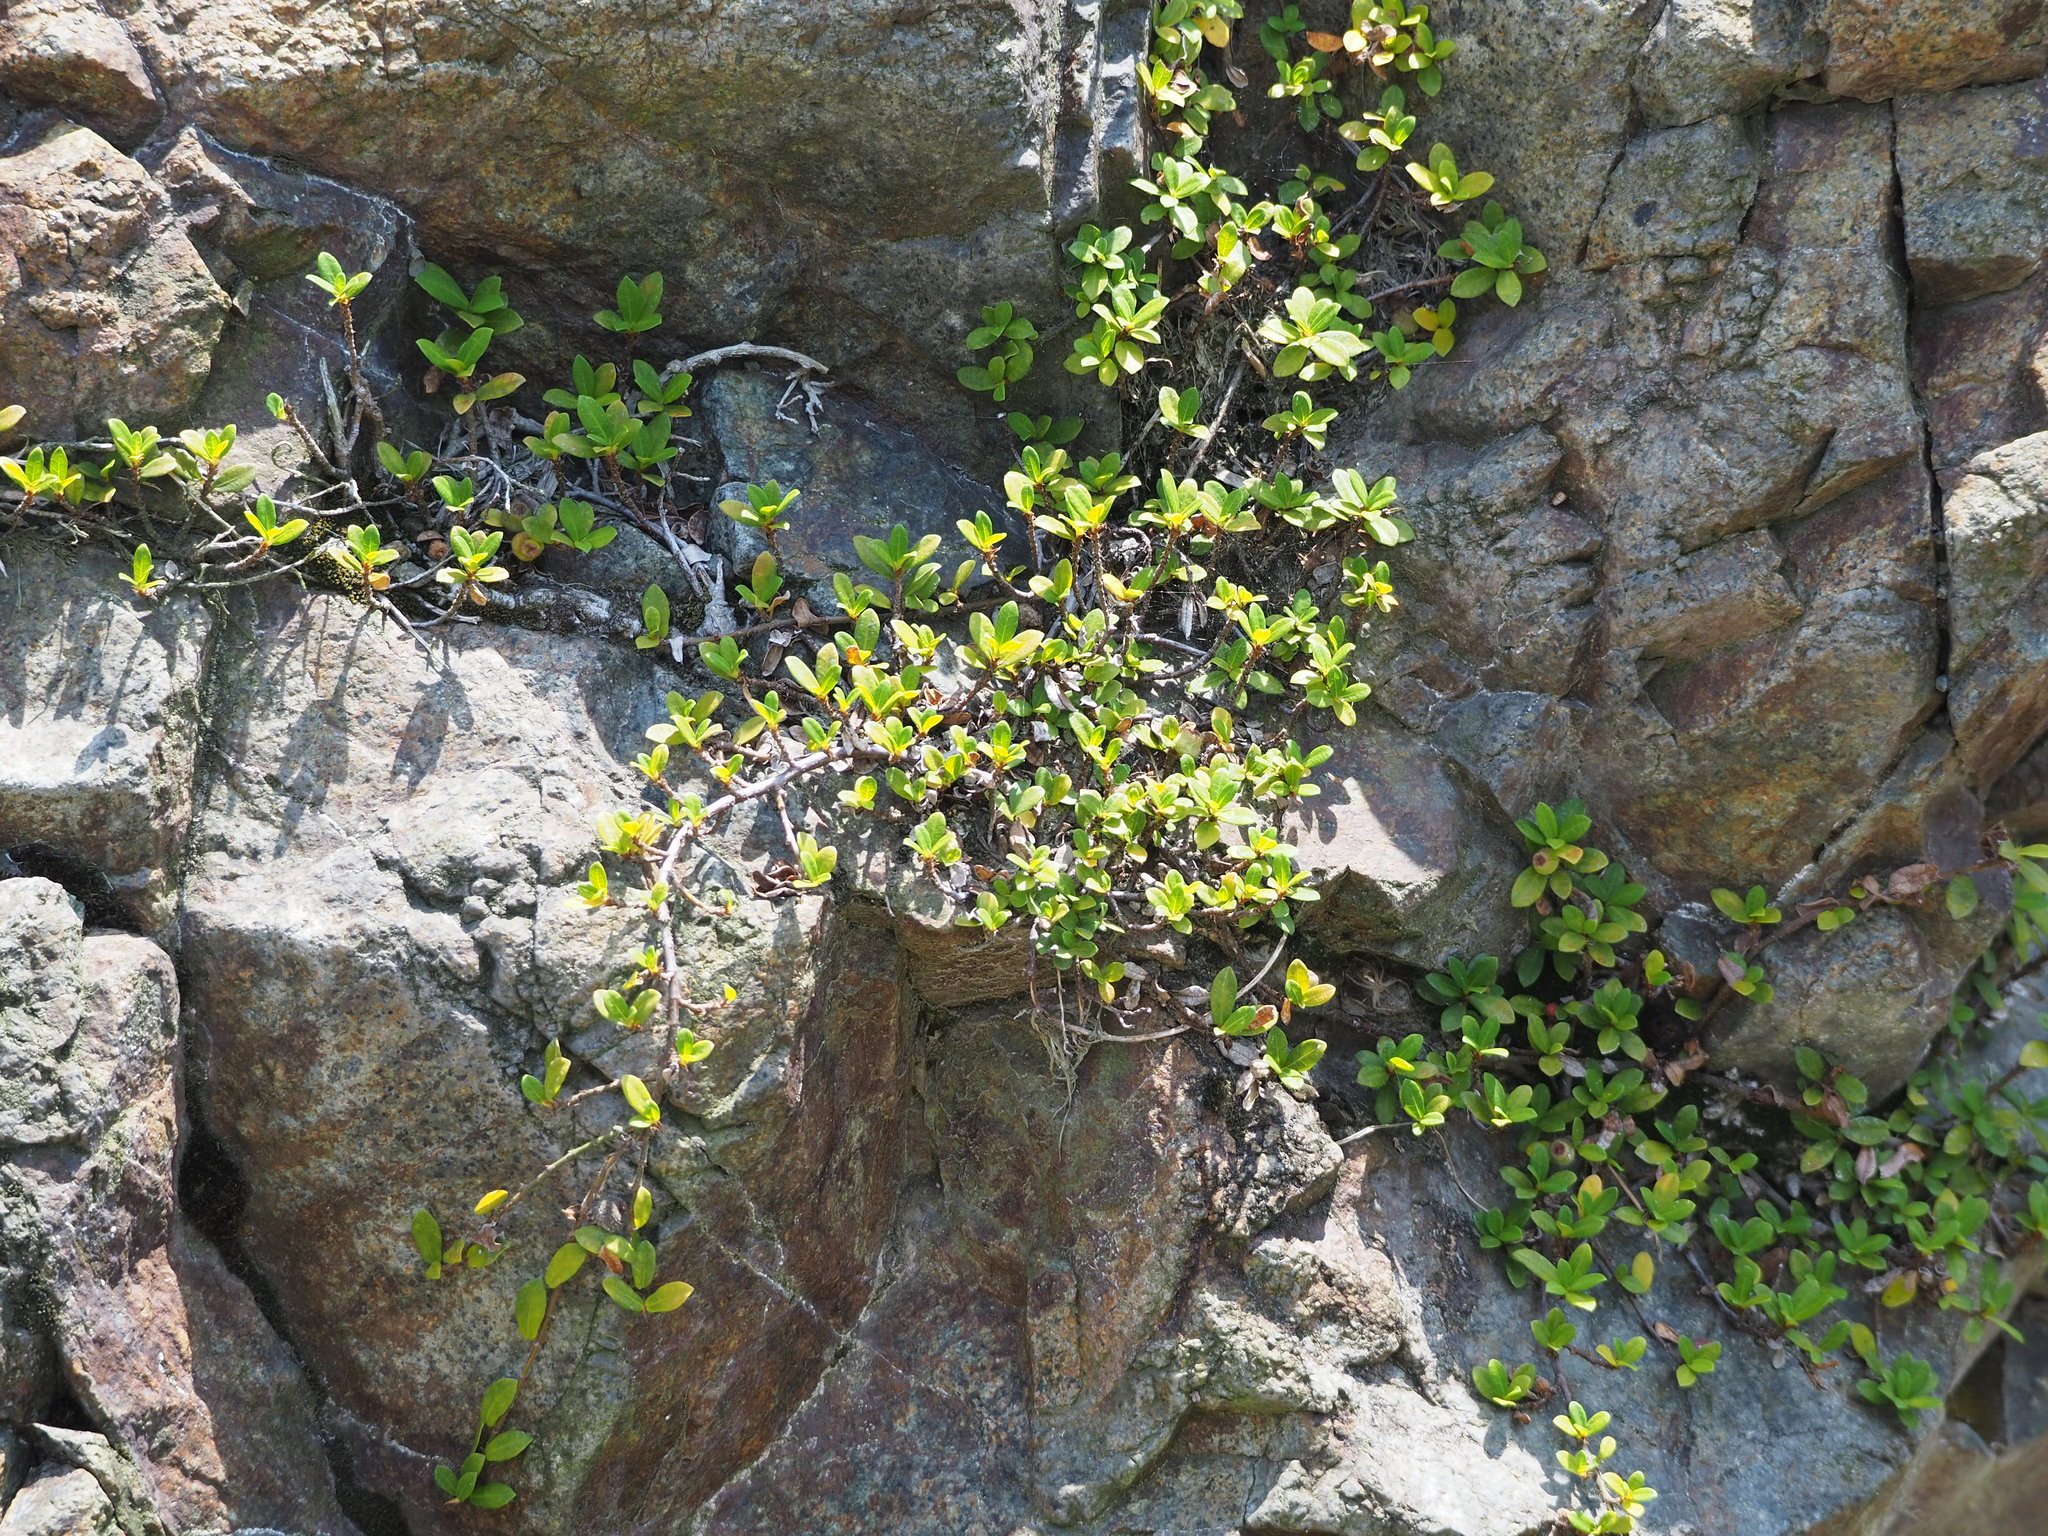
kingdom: Plantae
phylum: Tracheophyta
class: Magnoliopsida
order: Rosales
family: Moraceae
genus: Ficus
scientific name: Ficus vaccinioides
